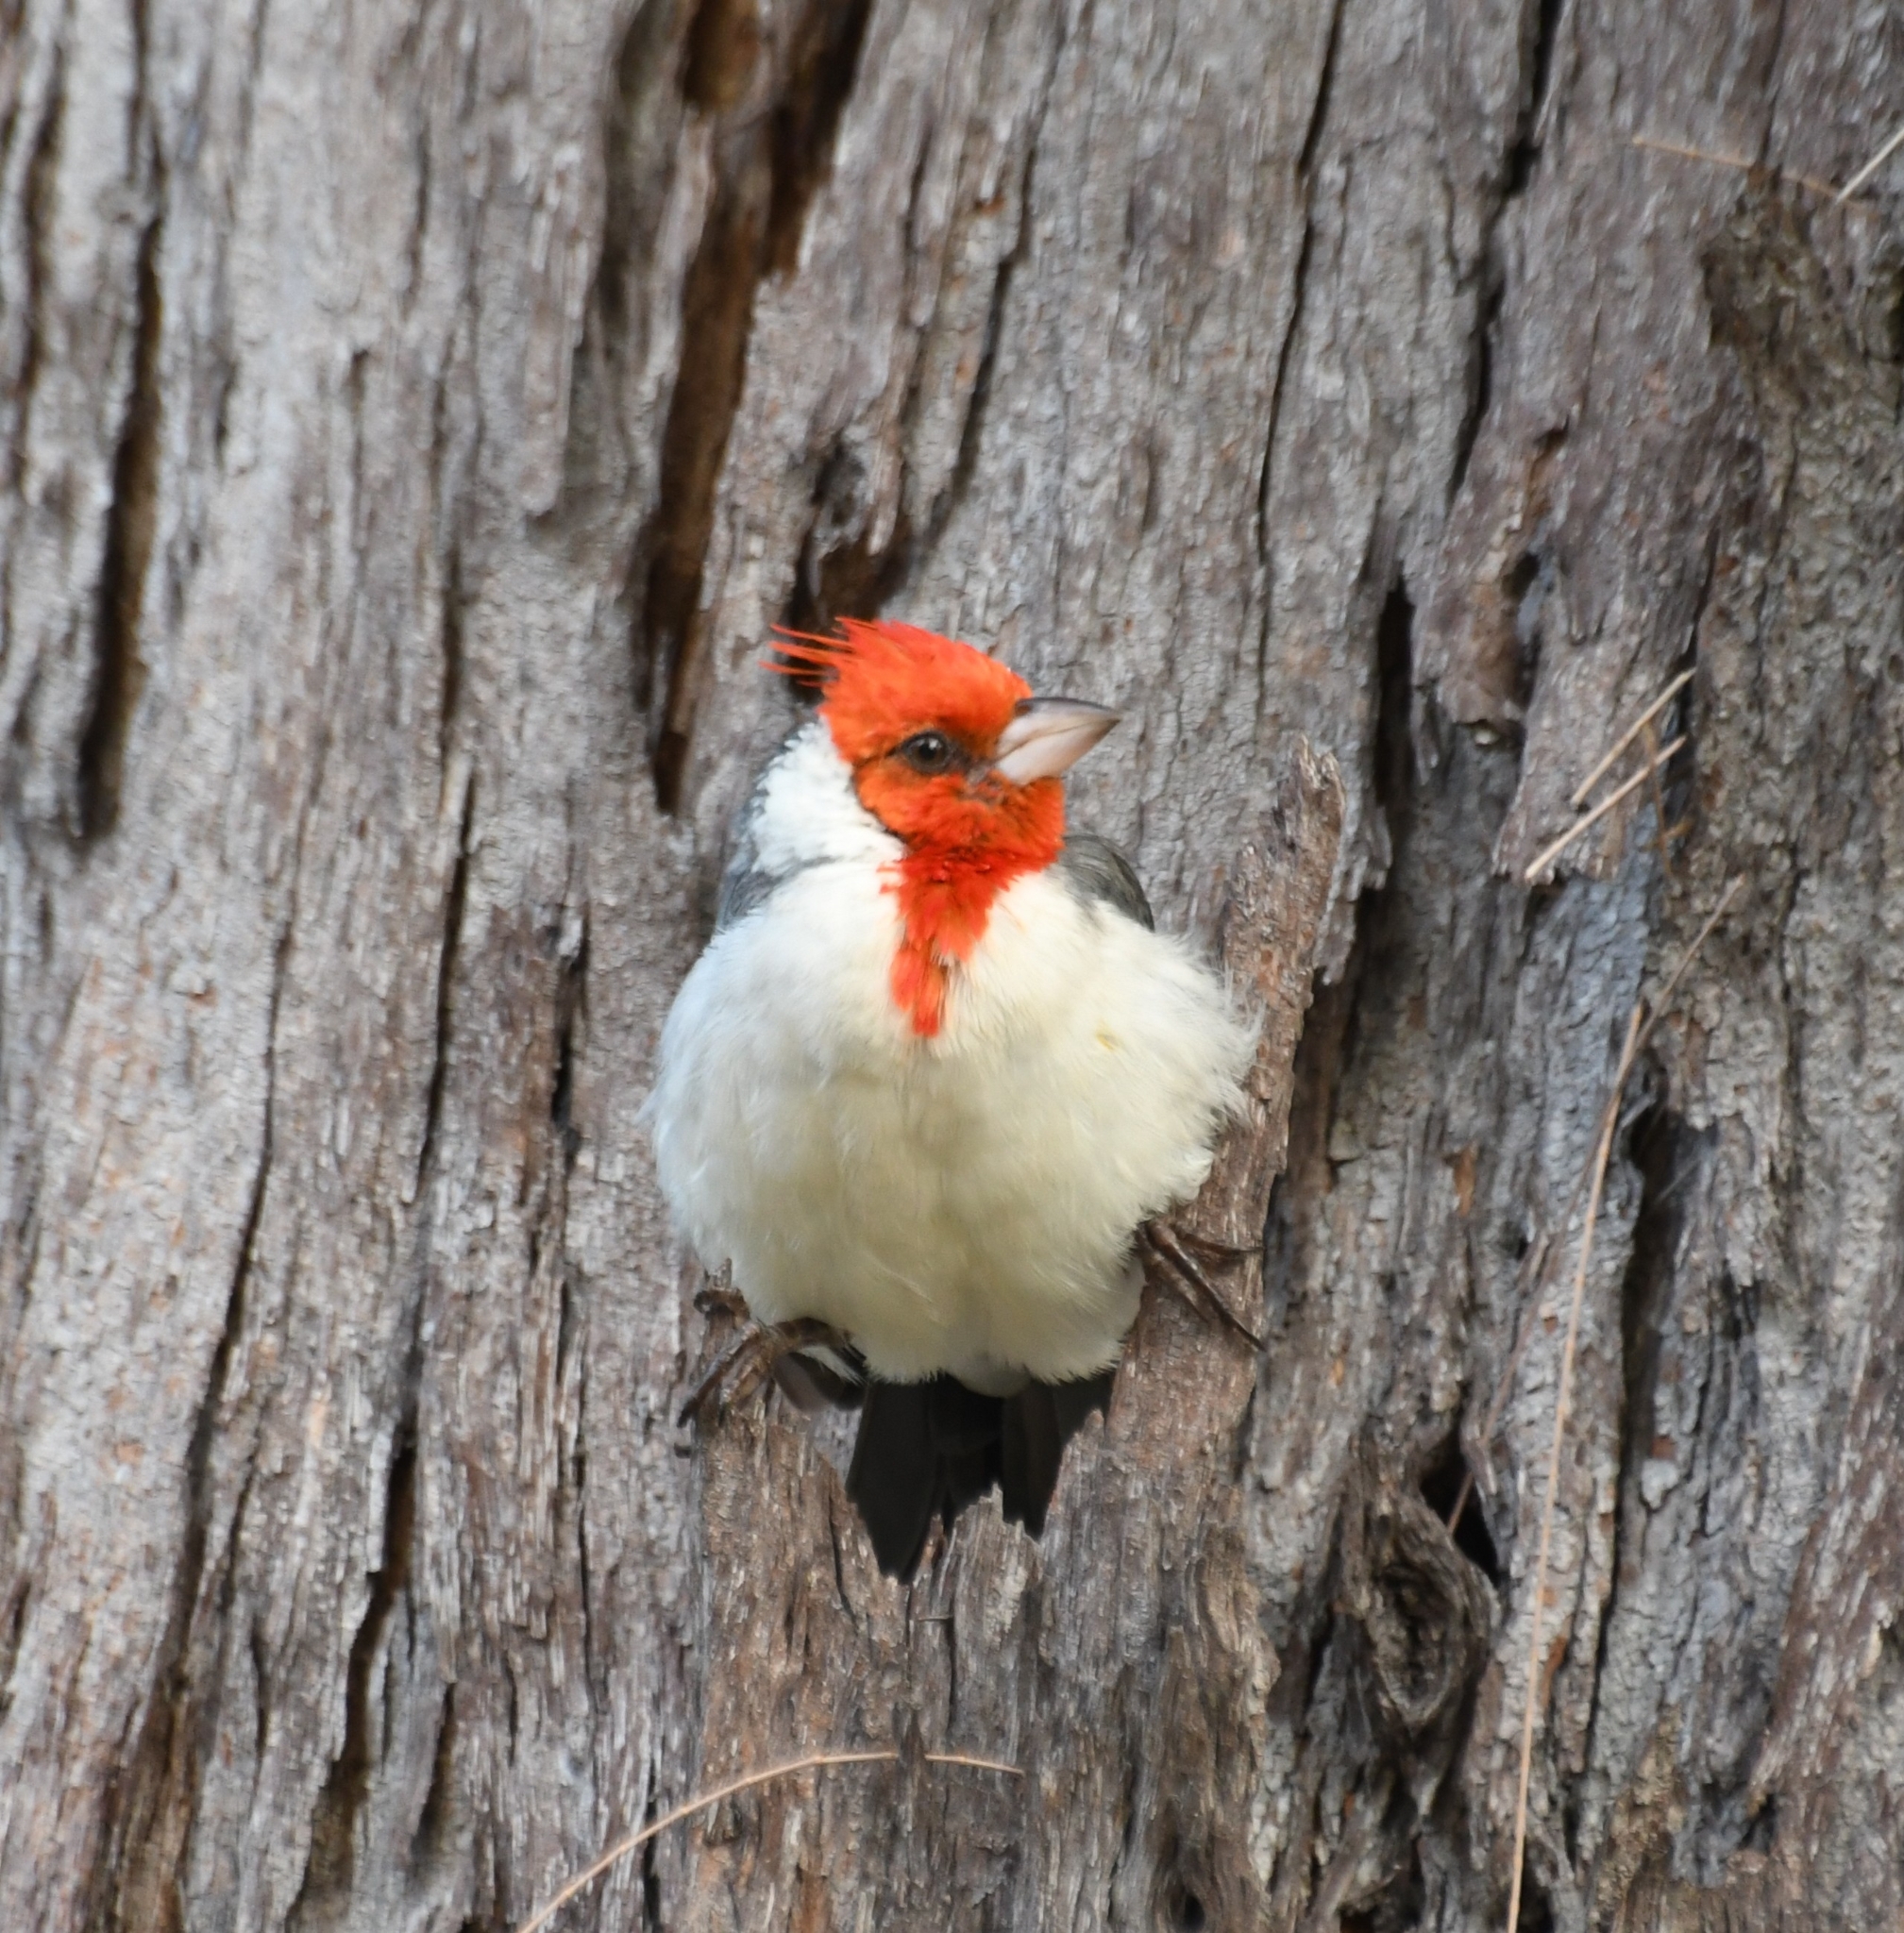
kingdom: Animalia
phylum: Chordata
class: Aves
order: Passeriformes
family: Thraupidae
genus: Paroaria
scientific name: Paroaria coronata
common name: Red-crested cardinal
